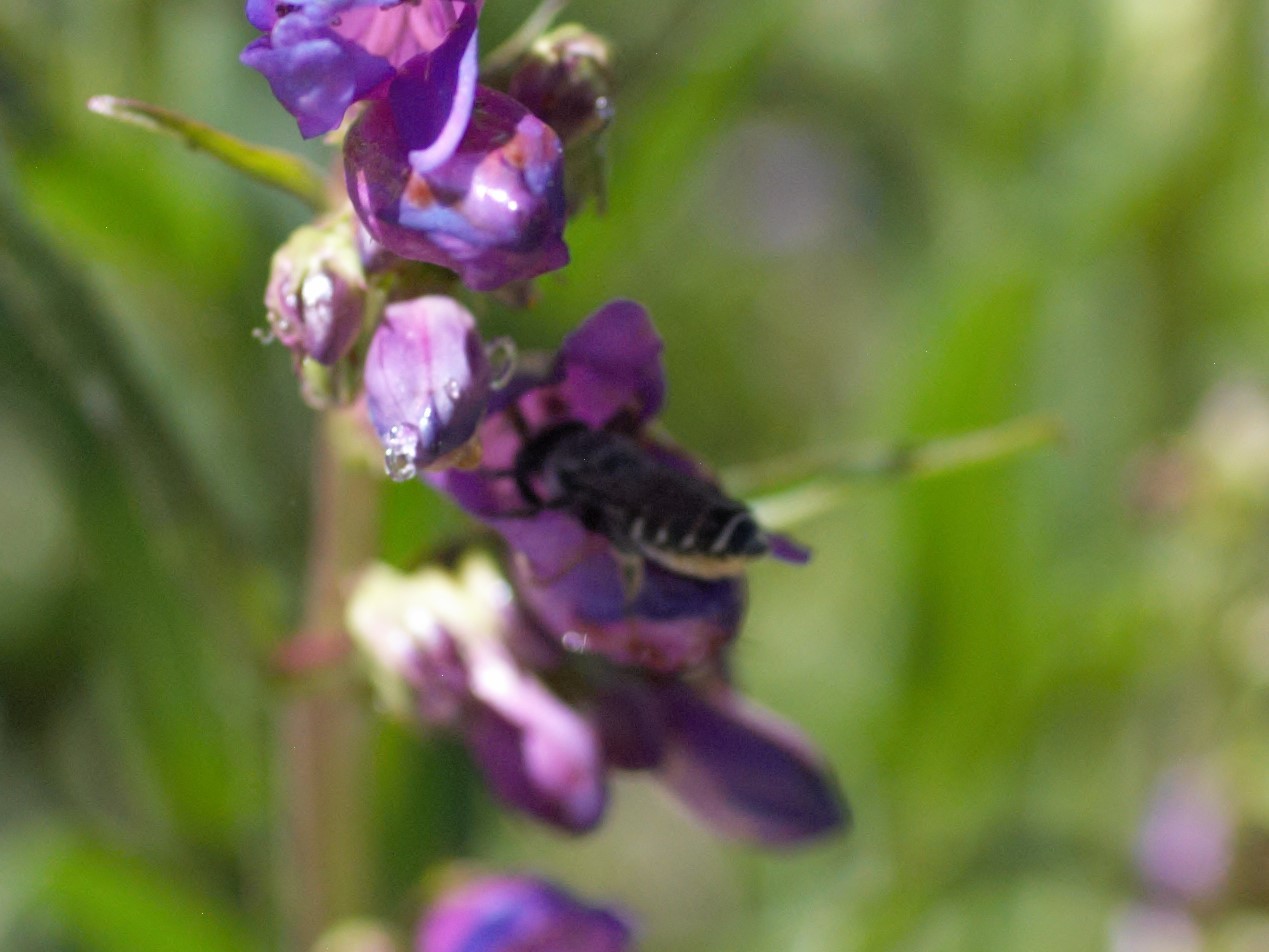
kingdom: Animalia
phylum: Arthropoda
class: Insecta
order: Hymenoptera
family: Megachilidae
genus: Megachile
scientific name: Megachile
